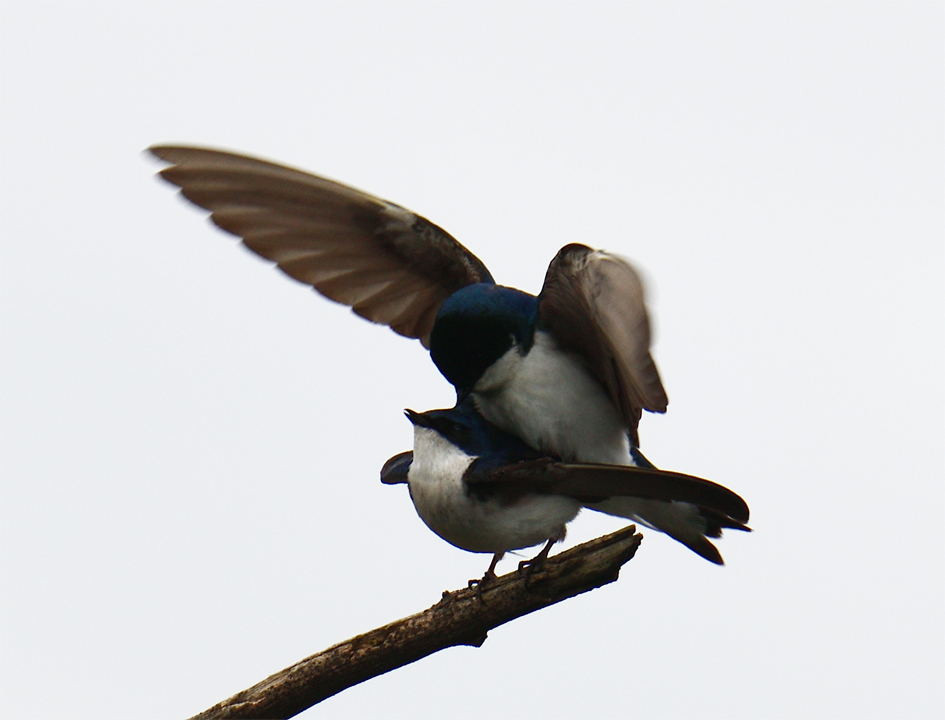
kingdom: Animalia
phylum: Chordata
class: Aves
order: Passeriformes
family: Hirundinidae
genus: Tachycineta
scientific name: Tachycineta bicolor
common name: Tree swallow
